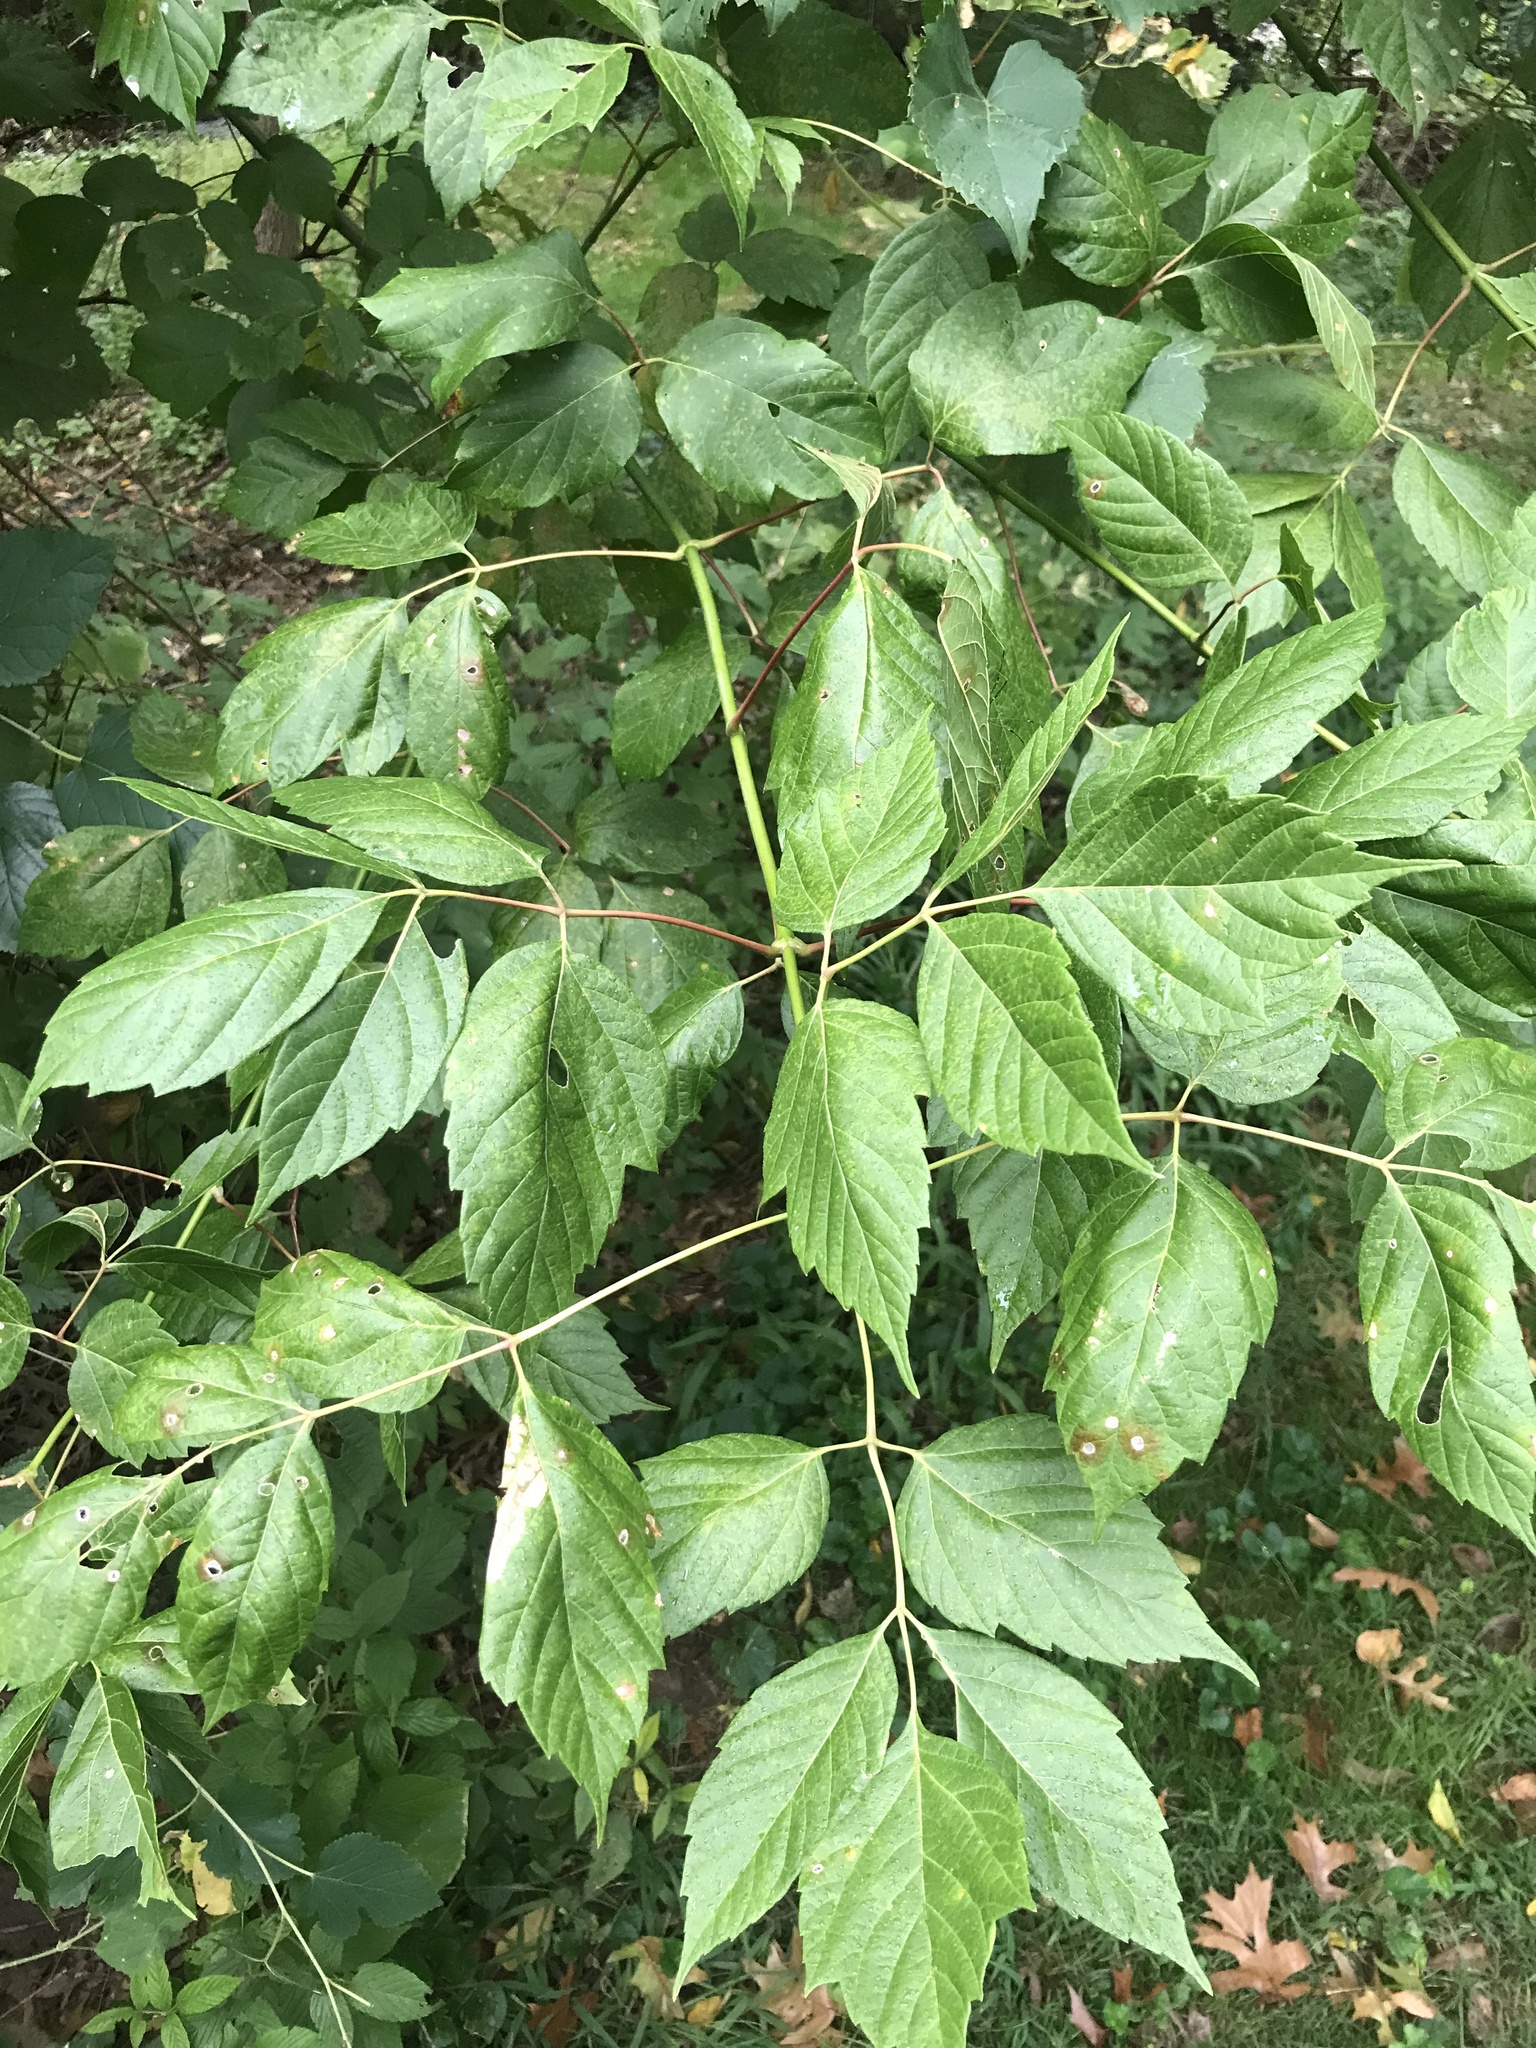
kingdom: Plantae
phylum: Tracheophyta
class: Magnoliopsida
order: Sapindales
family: Sapindaceae
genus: Acer
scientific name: Acer negundo
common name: Ashleaf maple
